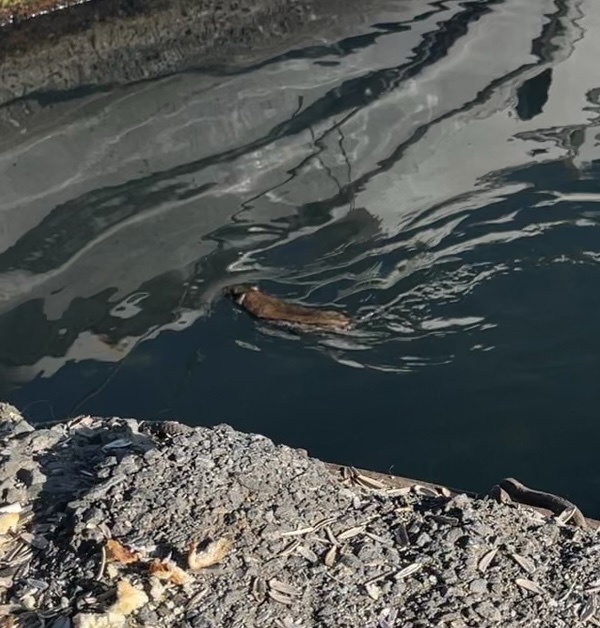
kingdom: Animalia
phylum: Chordata
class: Mammalia
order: Rodentia
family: Muridae
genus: Rattus
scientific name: Rattus norvegicus
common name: Brown rat
